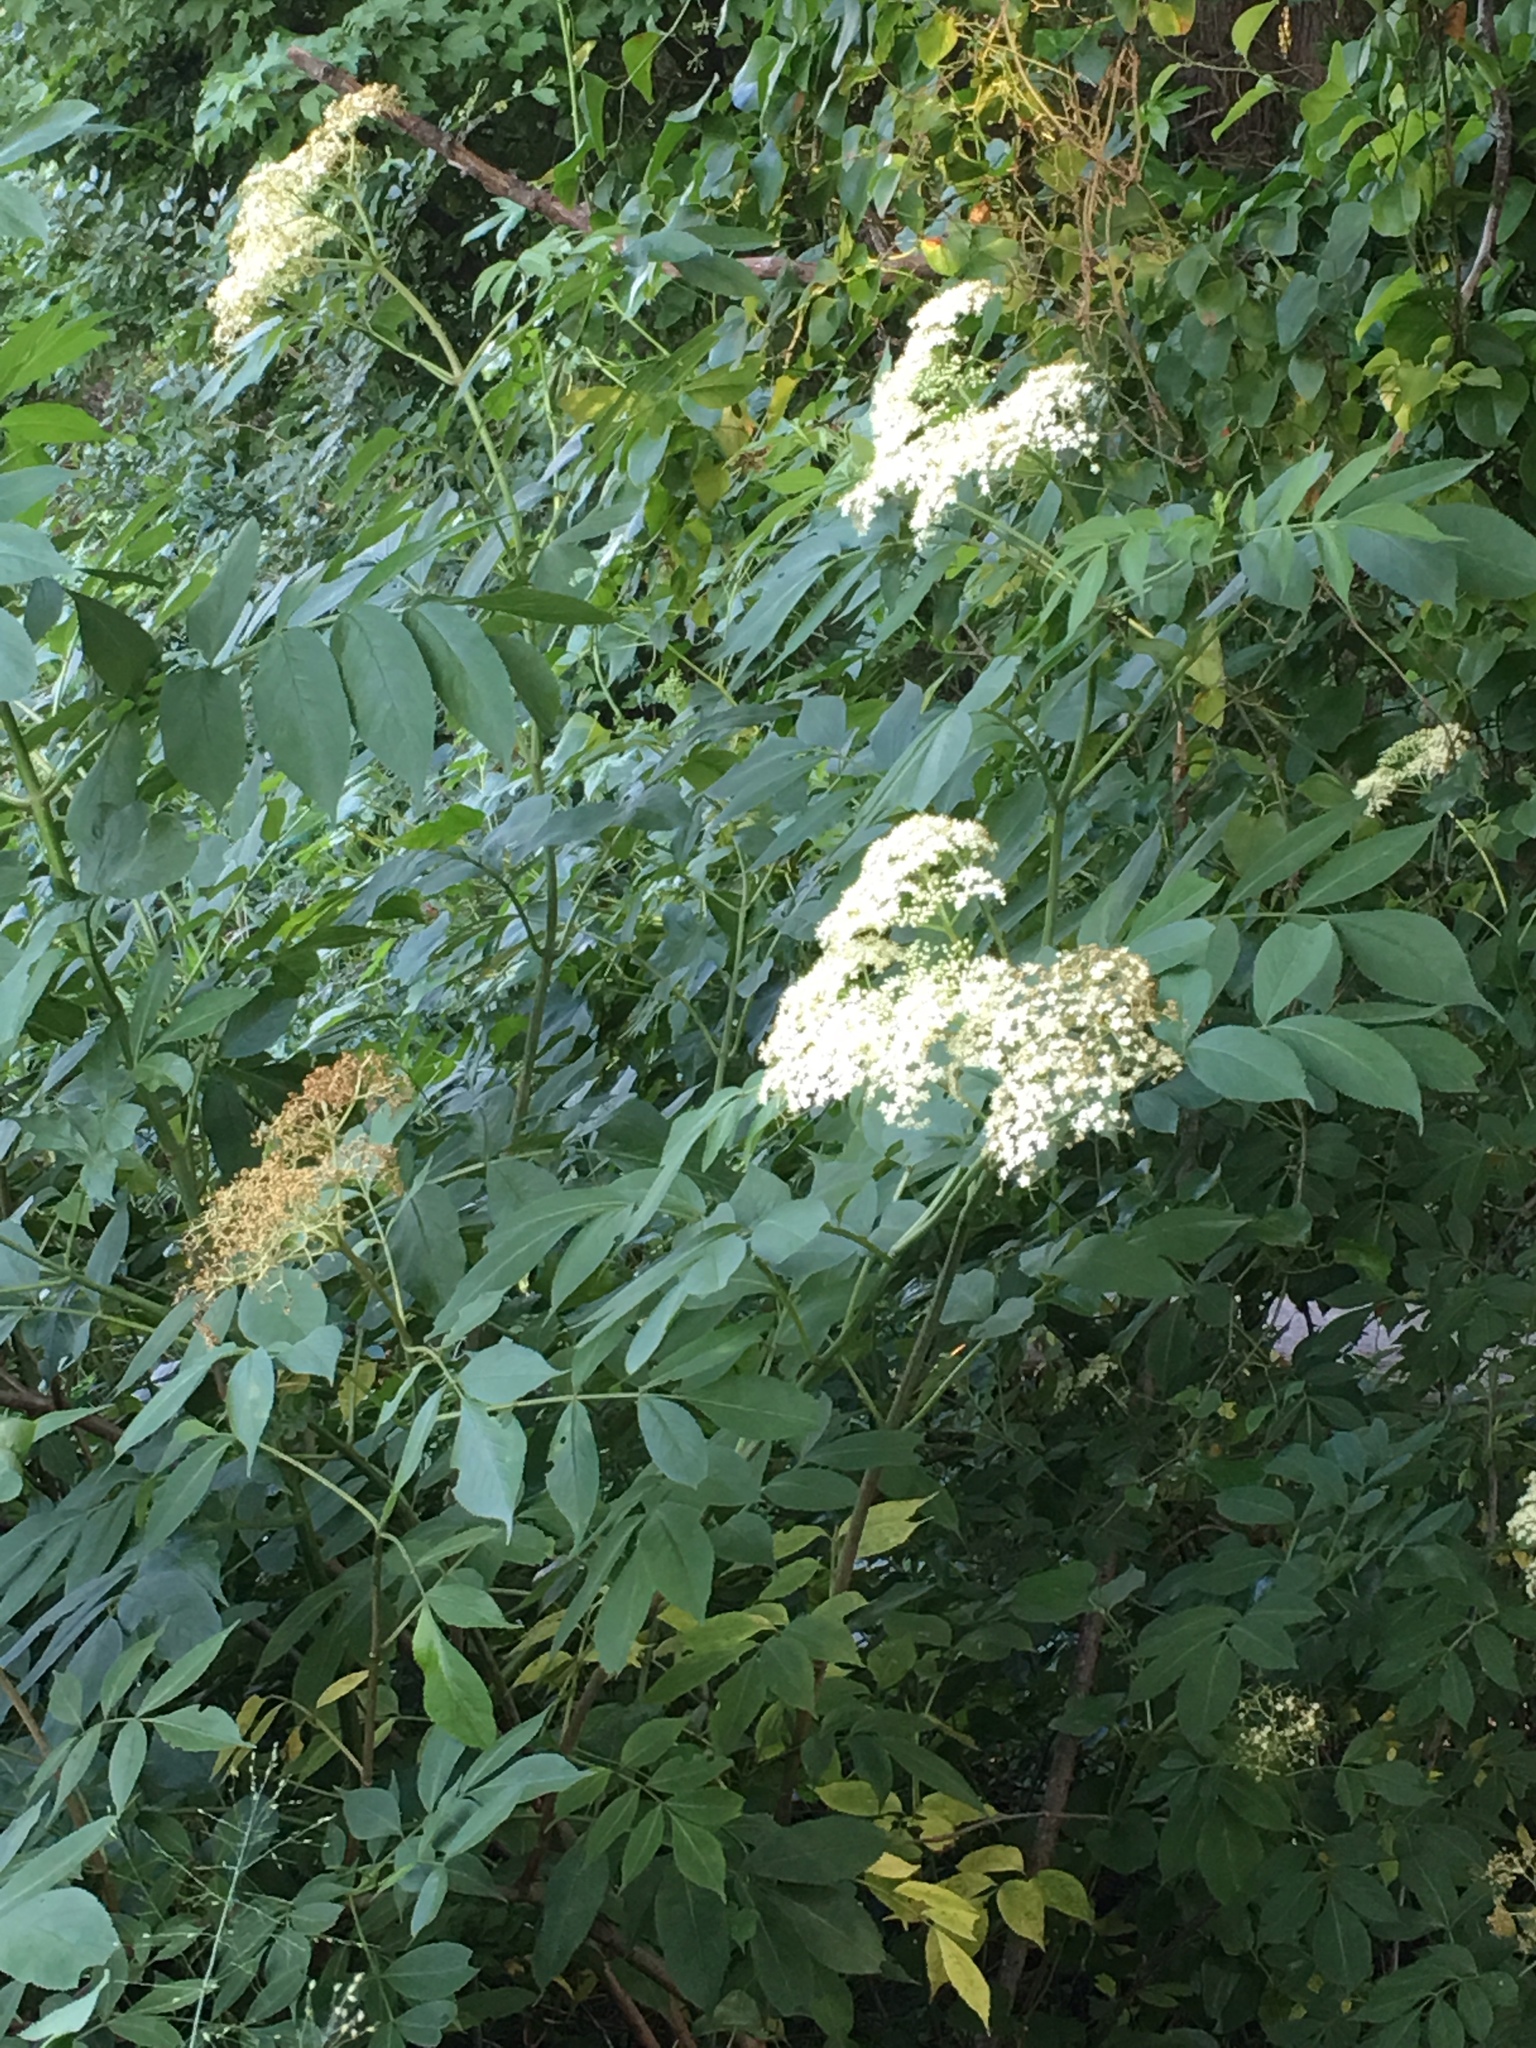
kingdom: Plantae
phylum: Tracheophyta
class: Magnoliopsida
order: Dipsacales
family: Viburnaceae
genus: Sambucus
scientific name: Sambucus canadensis
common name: American elder
